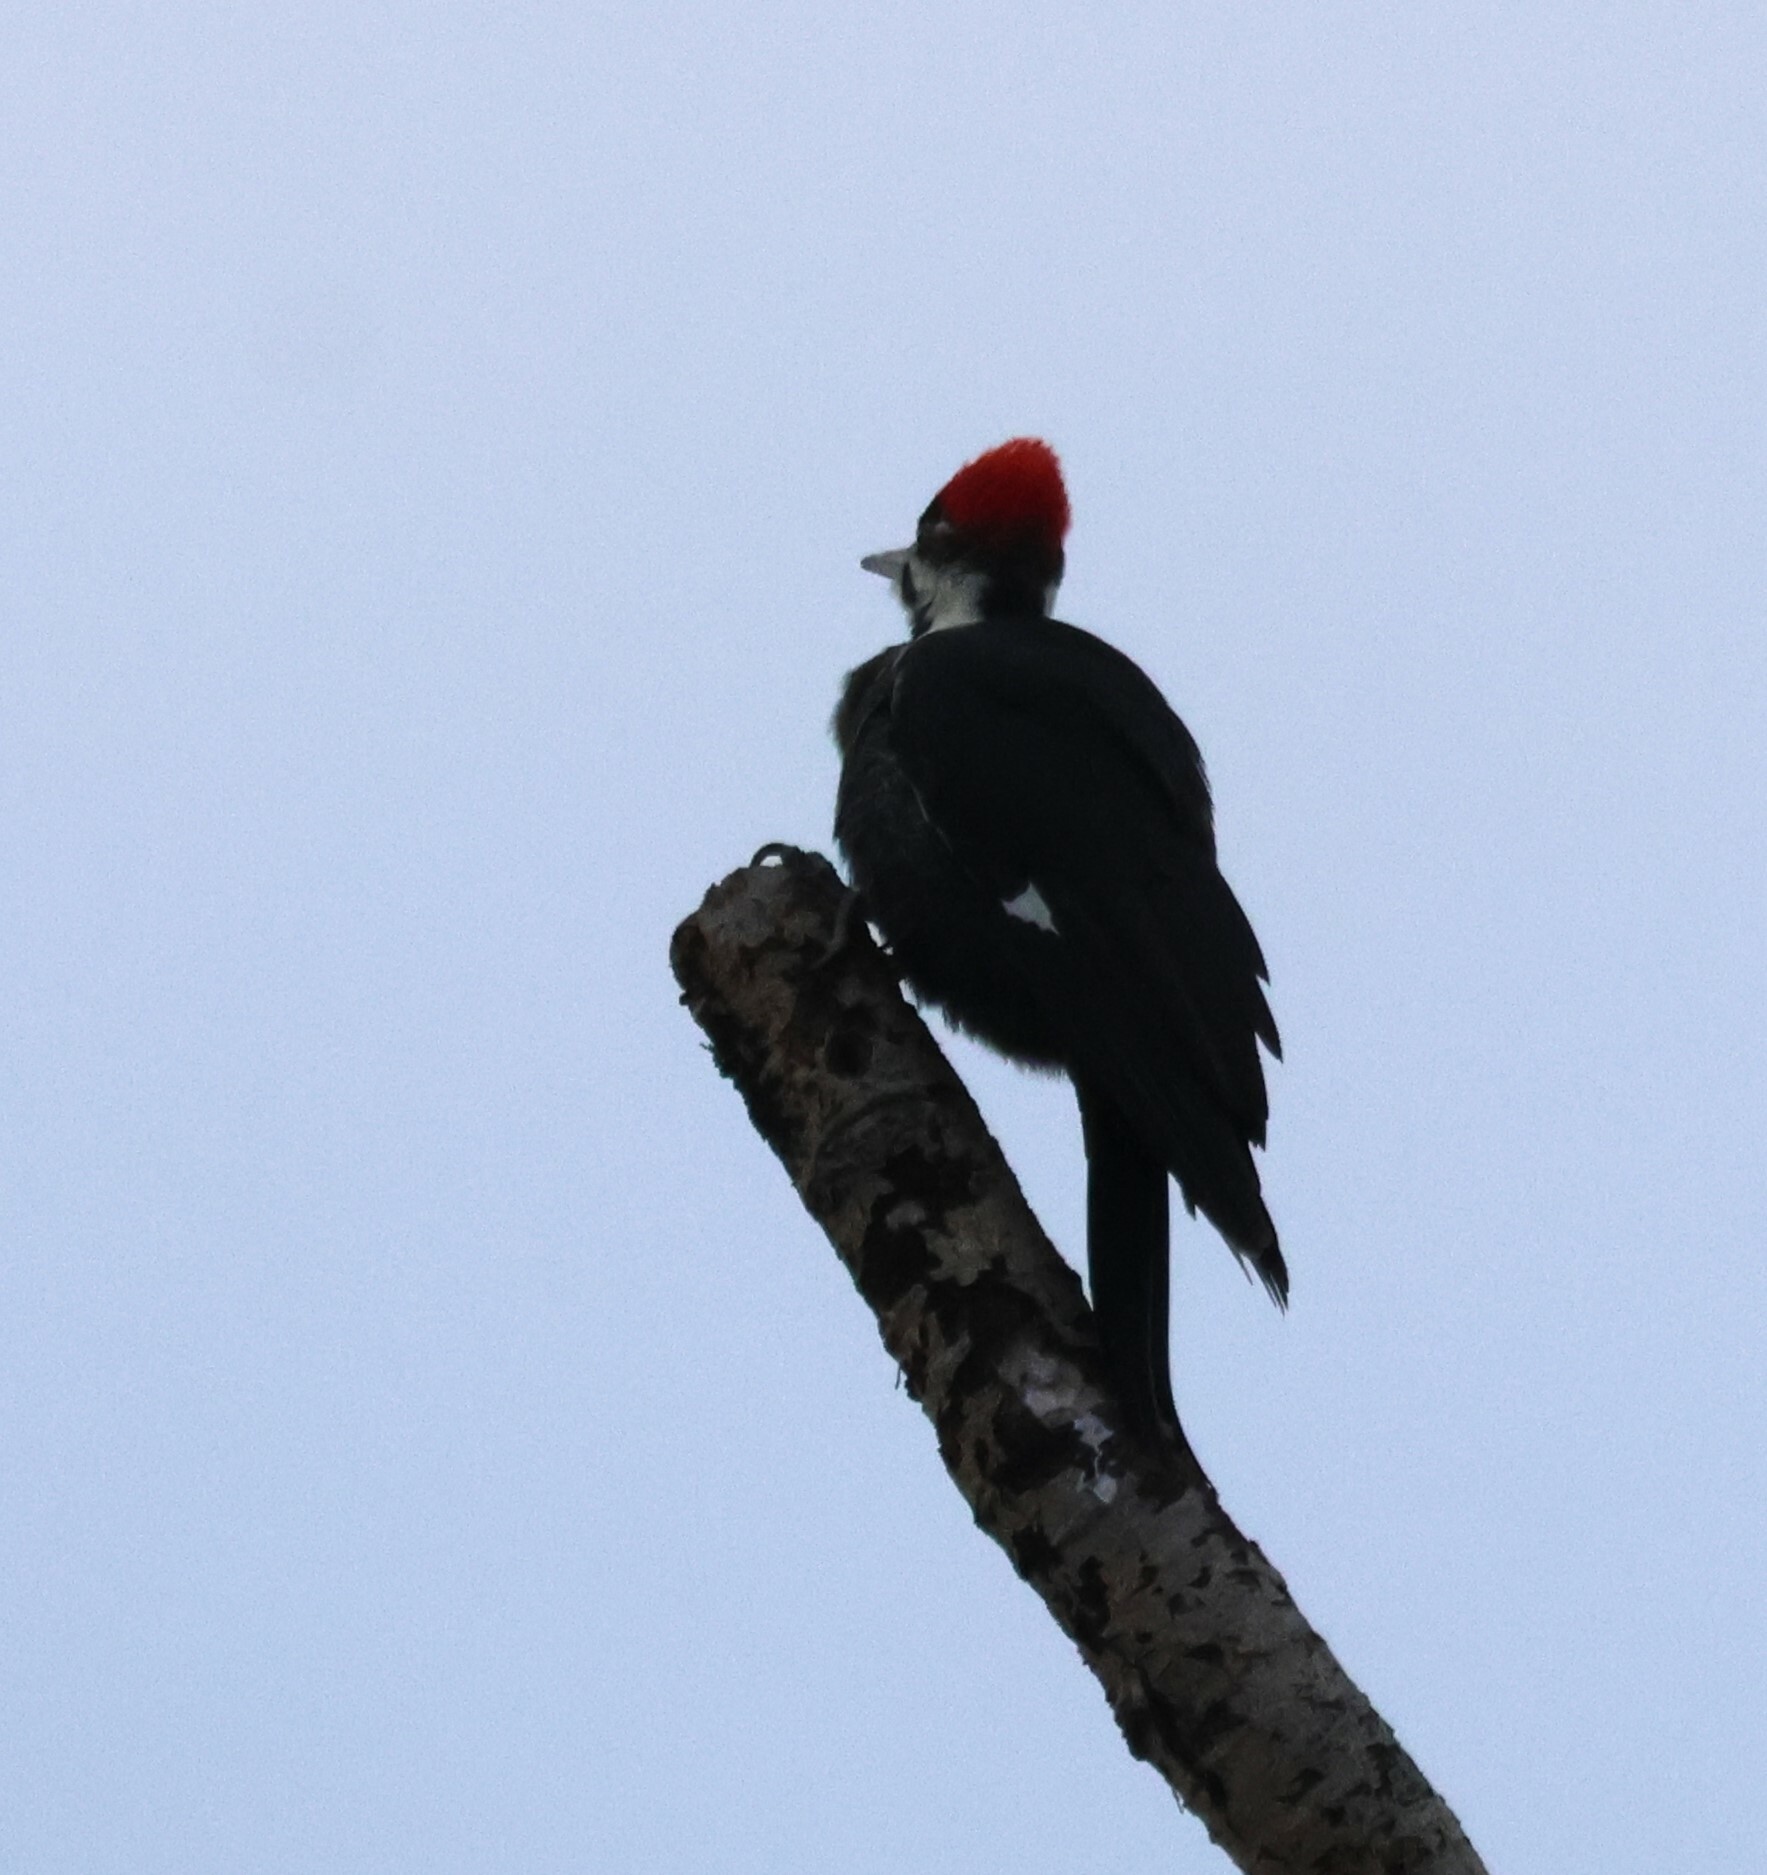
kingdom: Animalia
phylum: Chordata
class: Aves
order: Piciformes
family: Picidae
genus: Dryocopus
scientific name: Dryocopus pileatus
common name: Pileated woodpecker
